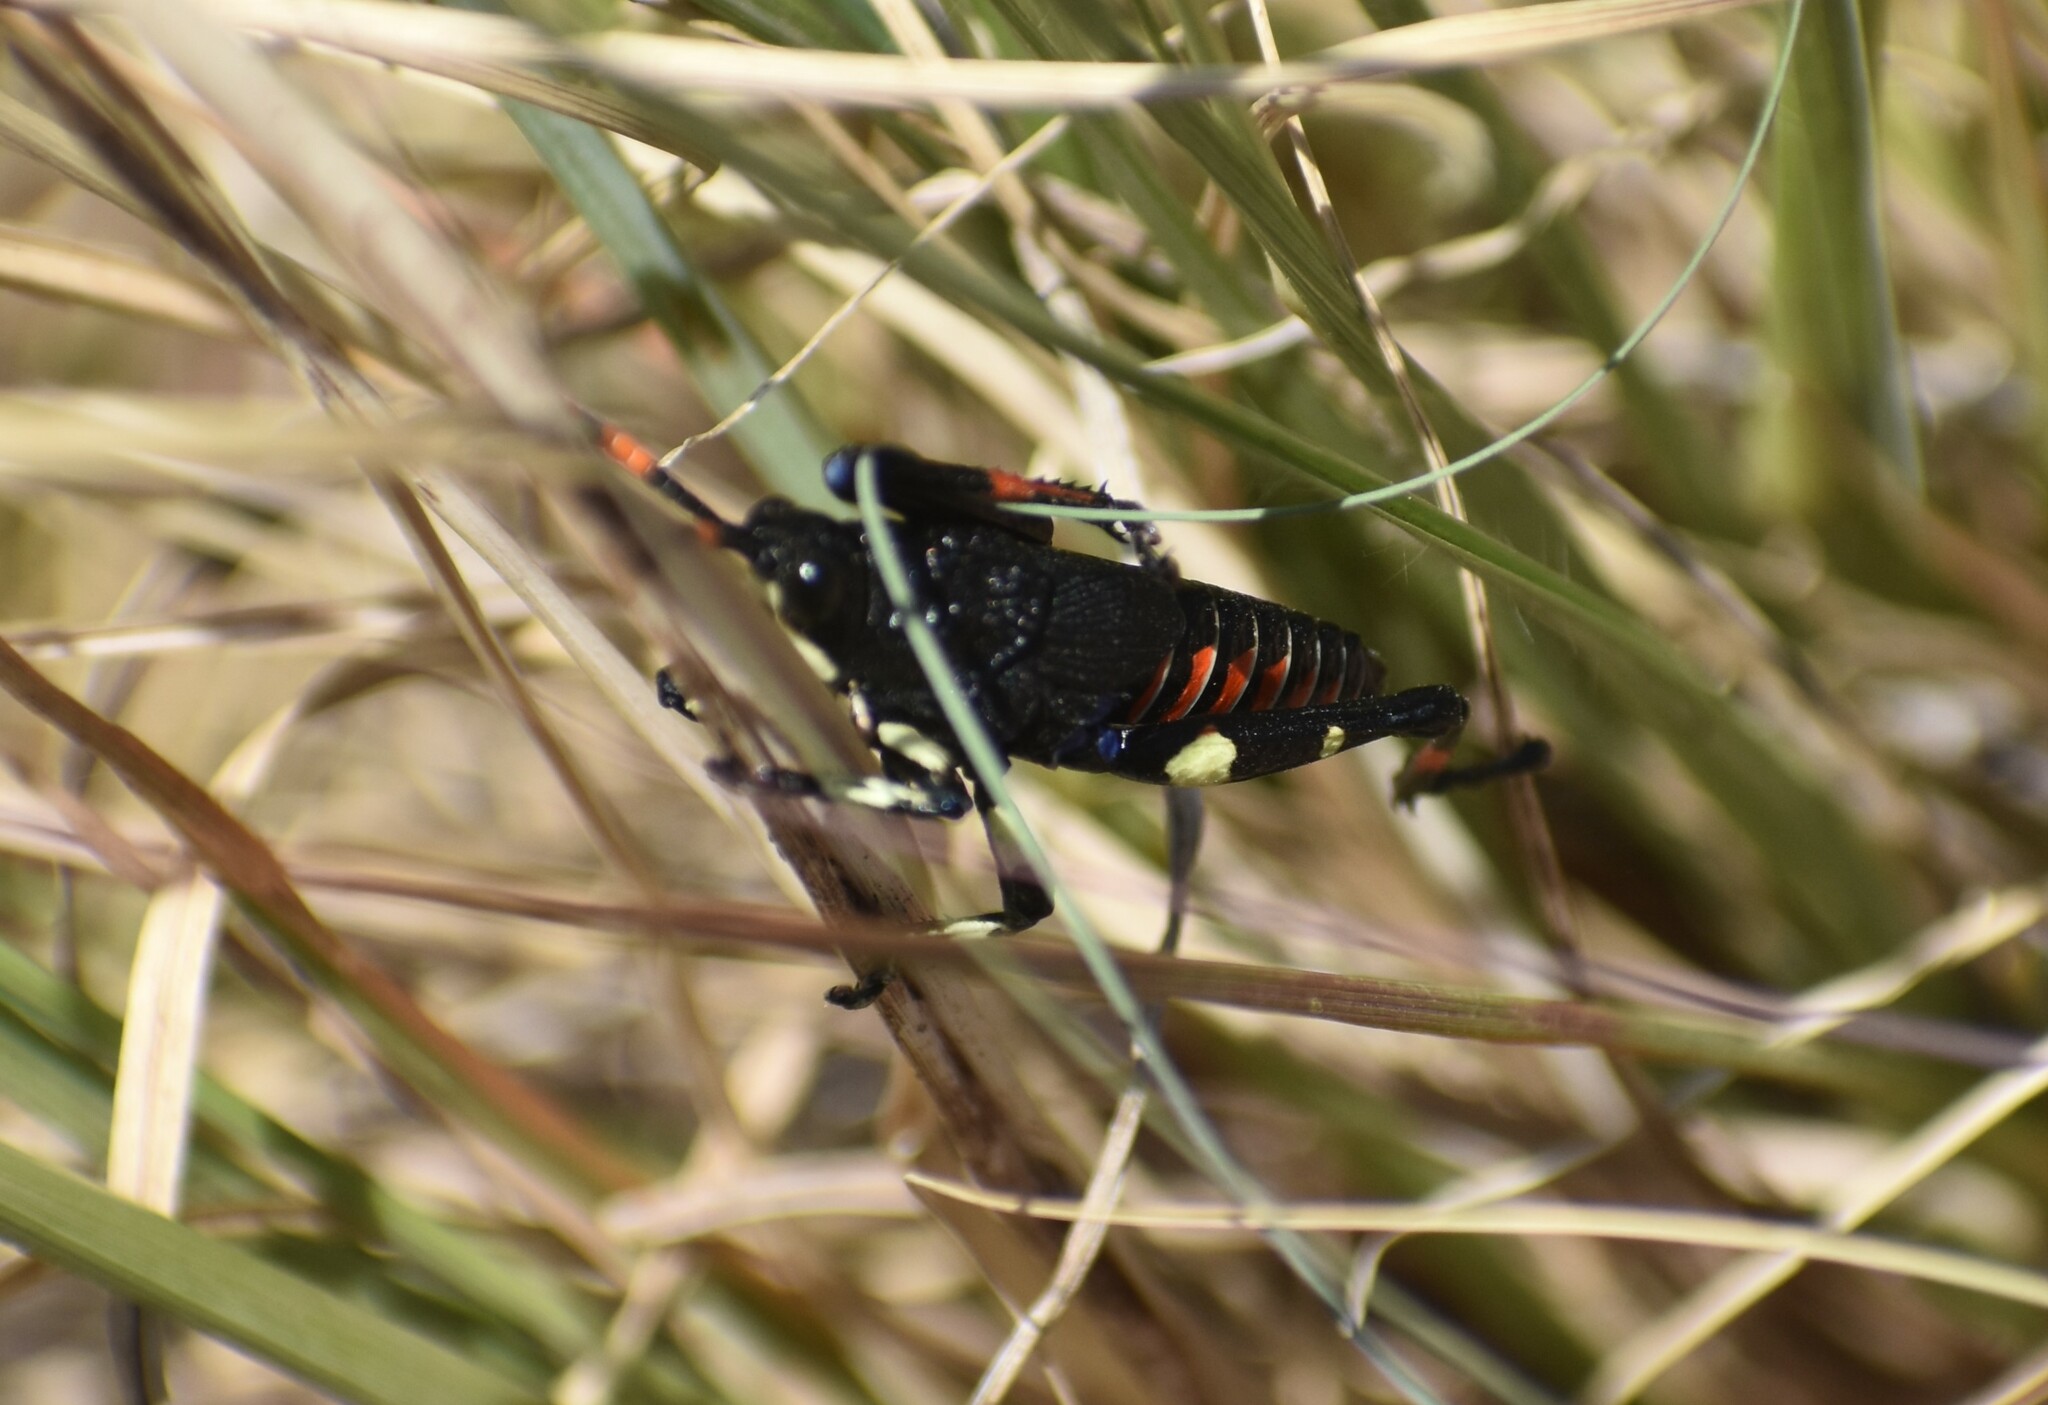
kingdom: Animalia
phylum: Arthropoda
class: Insecta
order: Orthoptera
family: Pyrgomorphidae
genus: Maura
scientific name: Maura rubroornata
